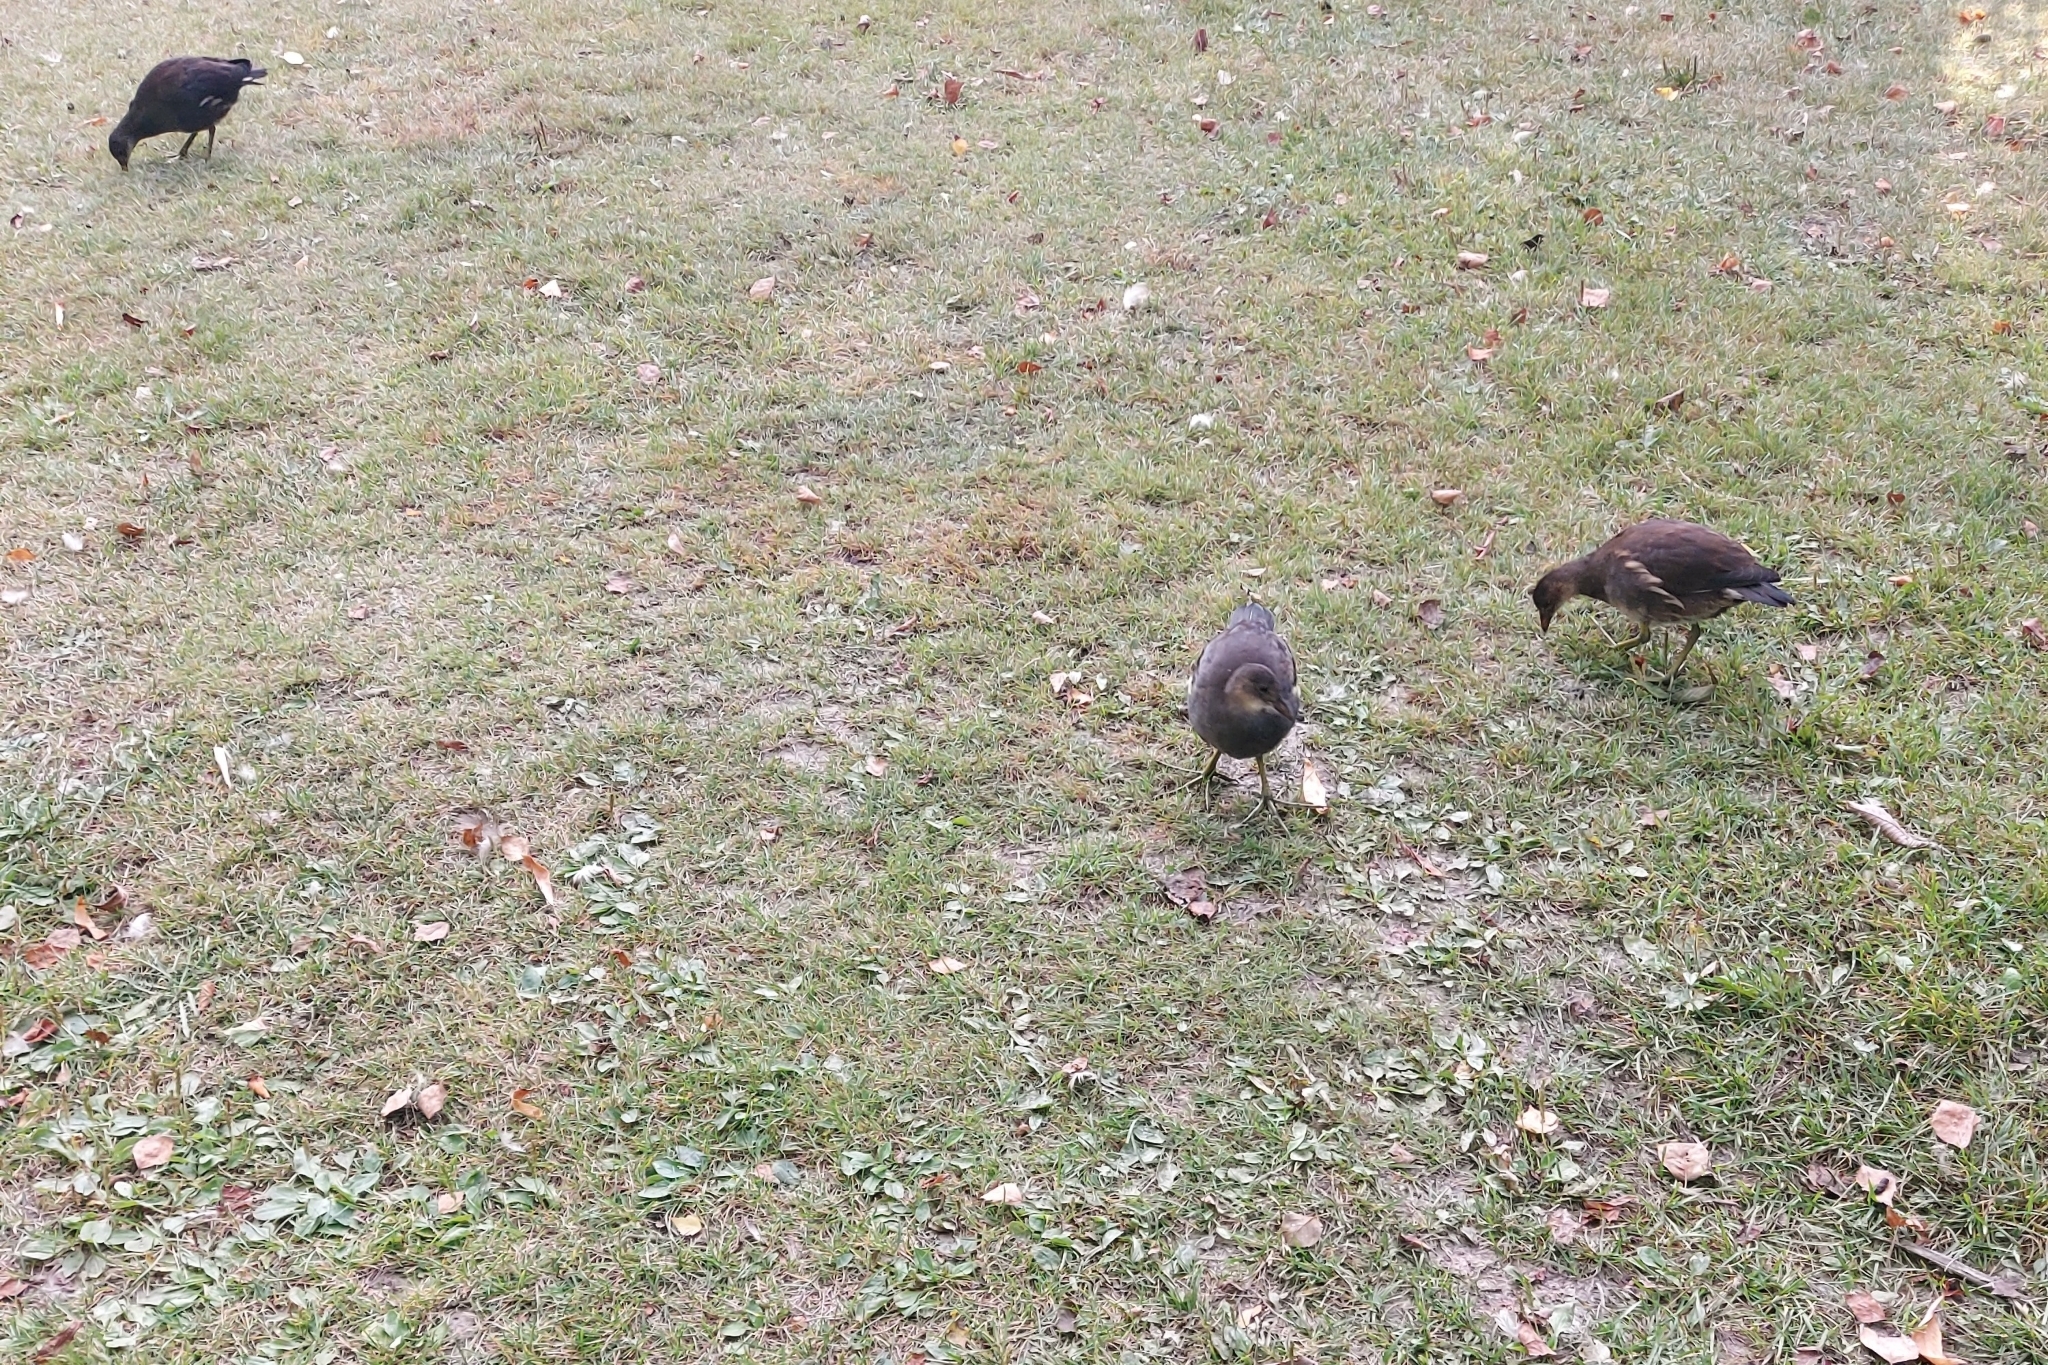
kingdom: Animalia
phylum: Chordata
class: Aves
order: Gruiformes
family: Rallidae
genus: Gallinula
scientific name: Gallinula chloropus
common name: Common moorhen
